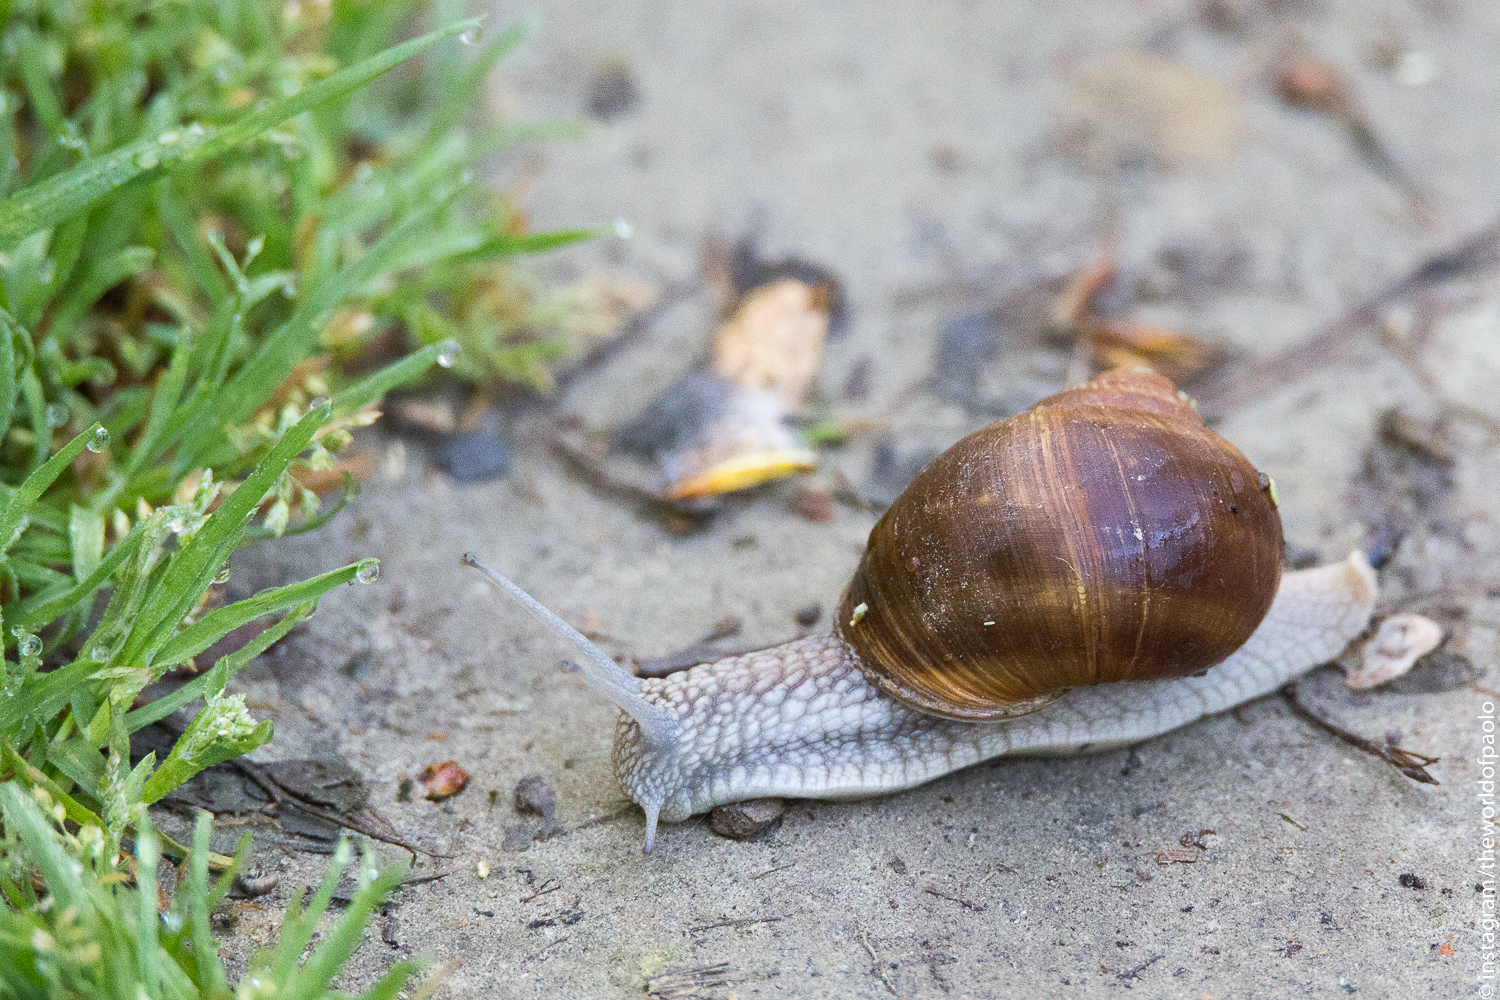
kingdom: Animalia
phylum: Mollusca
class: Gastropoda
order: Stylommatophora
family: Helicidae
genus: Helix
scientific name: Helix pomatia
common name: Roman snail
